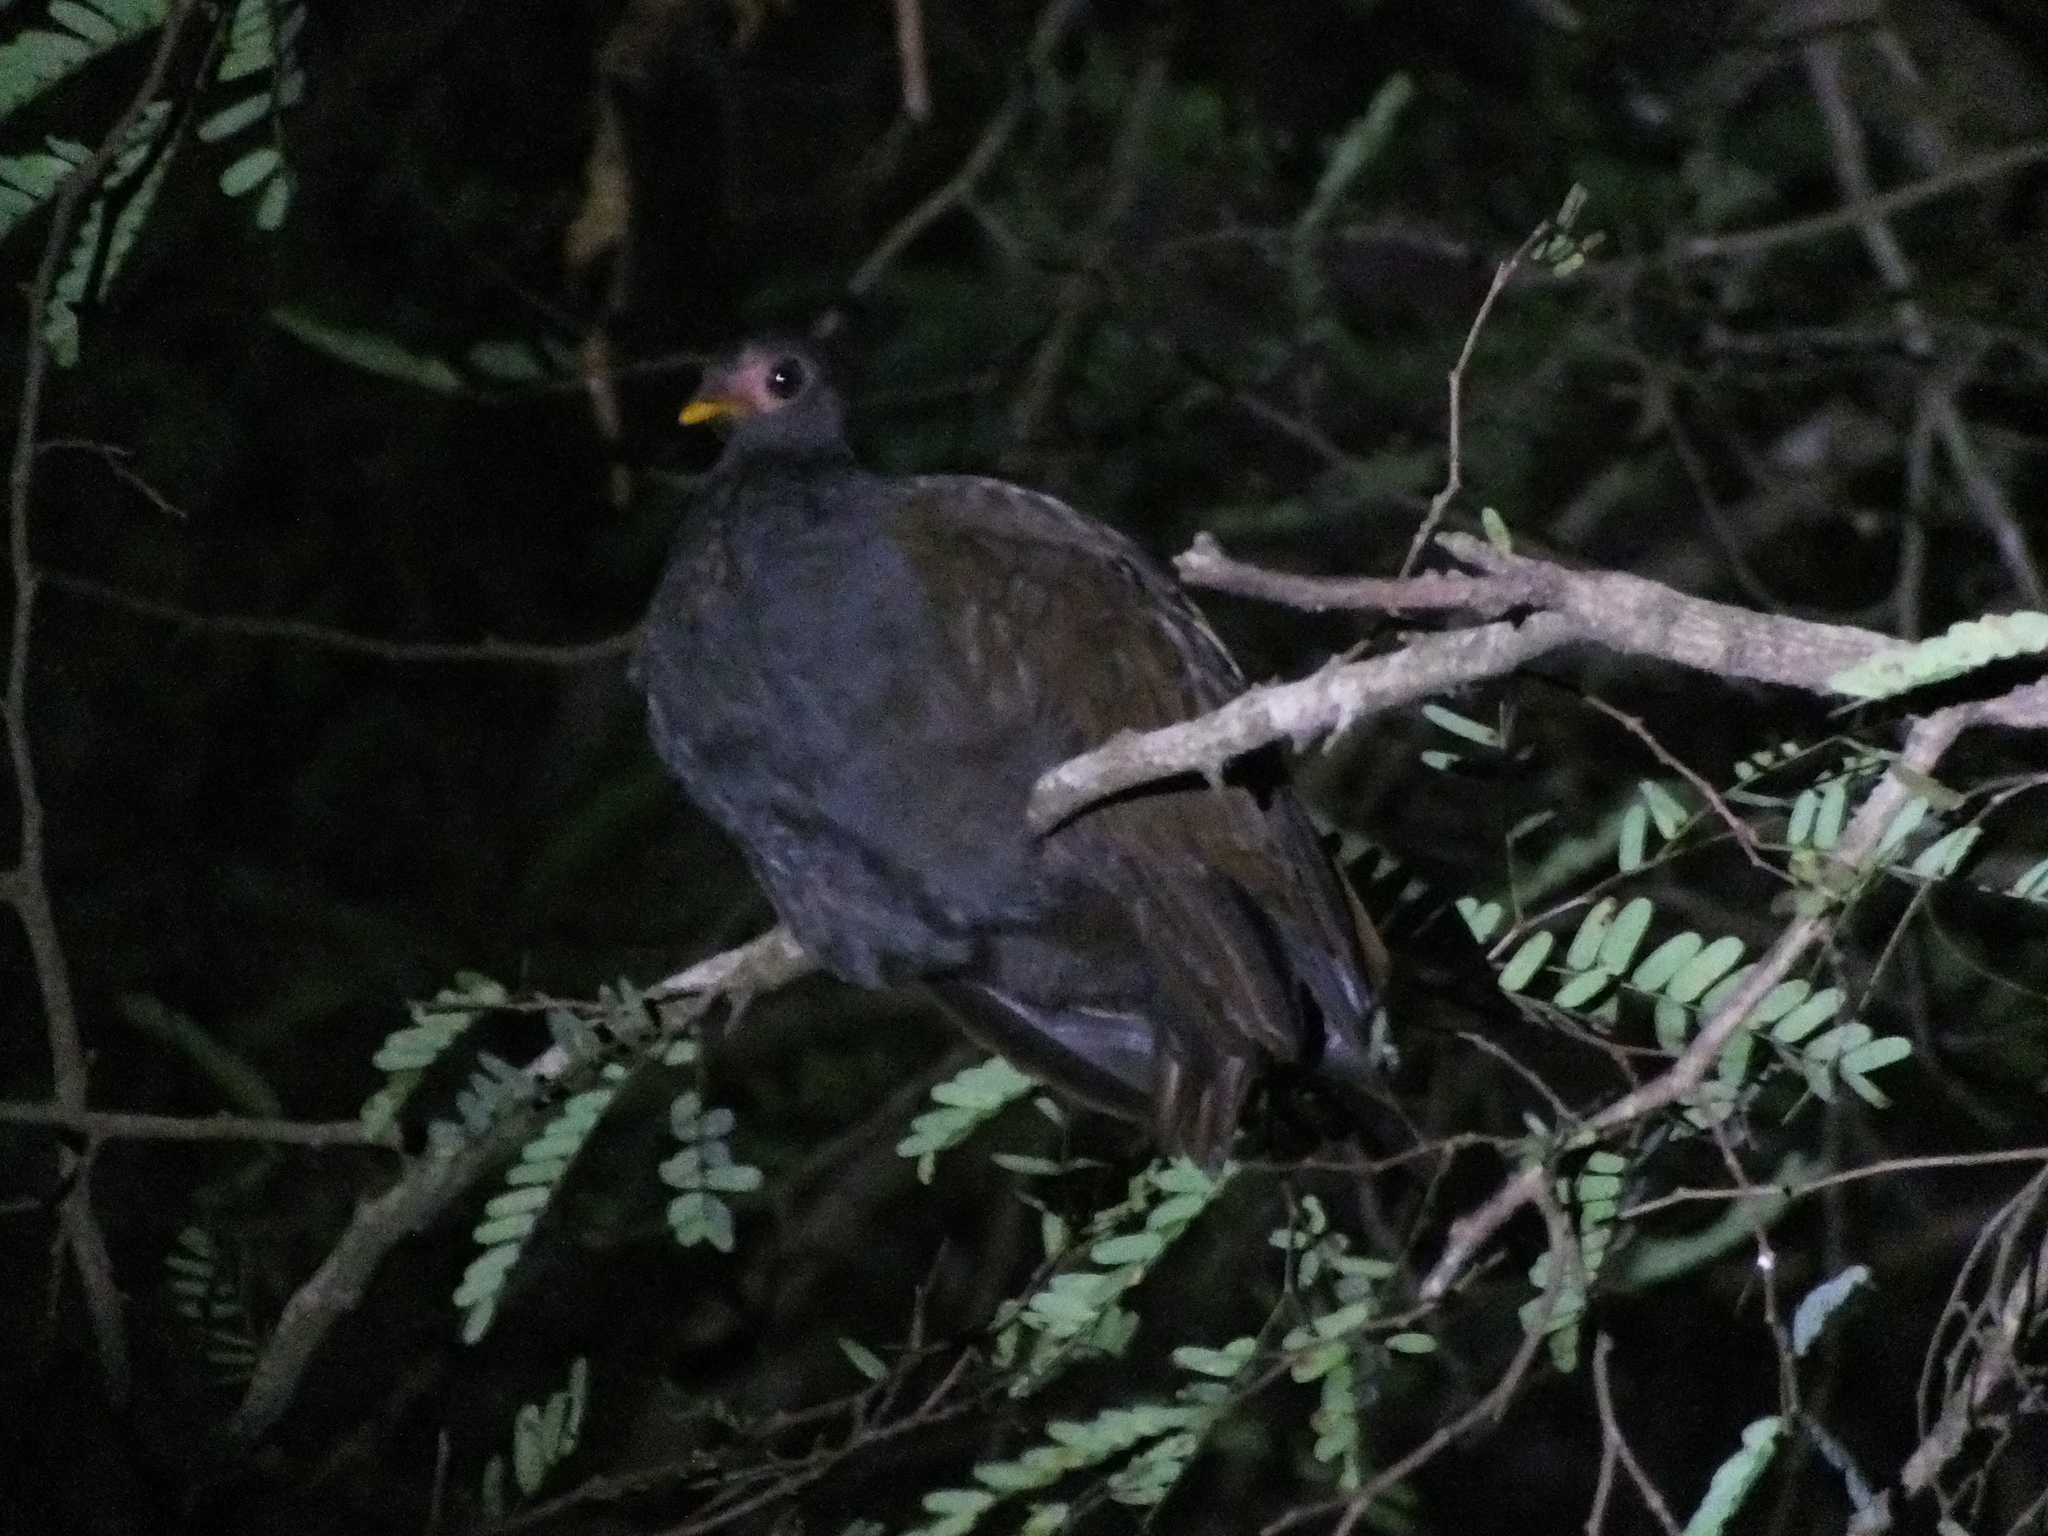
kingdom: Animalia
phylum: Chordata
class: Aves
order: Galliformes
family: Megapodiidae
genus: Megapodius
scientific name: Megapodius reinwardt
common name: Orange-footed scrubfowl
